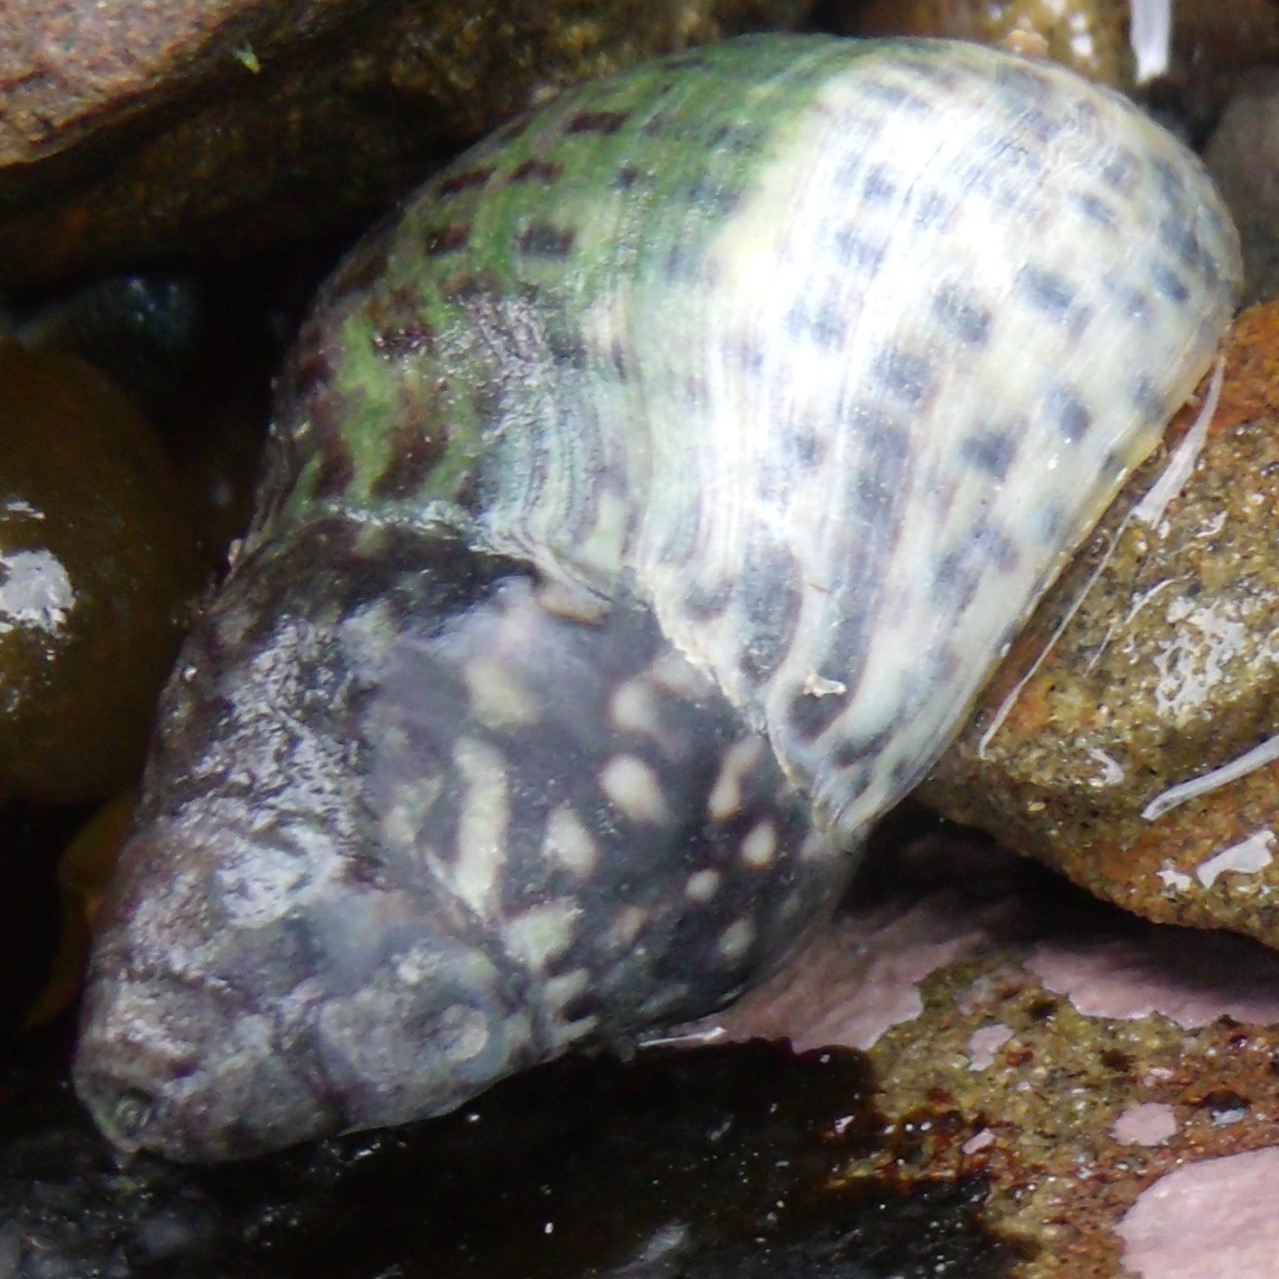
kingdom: Animalia
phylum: Mollusca
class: Gastropoda
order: Neogastropoda
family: Cominellidae
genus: Cominella
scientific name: Cominella maculosa
